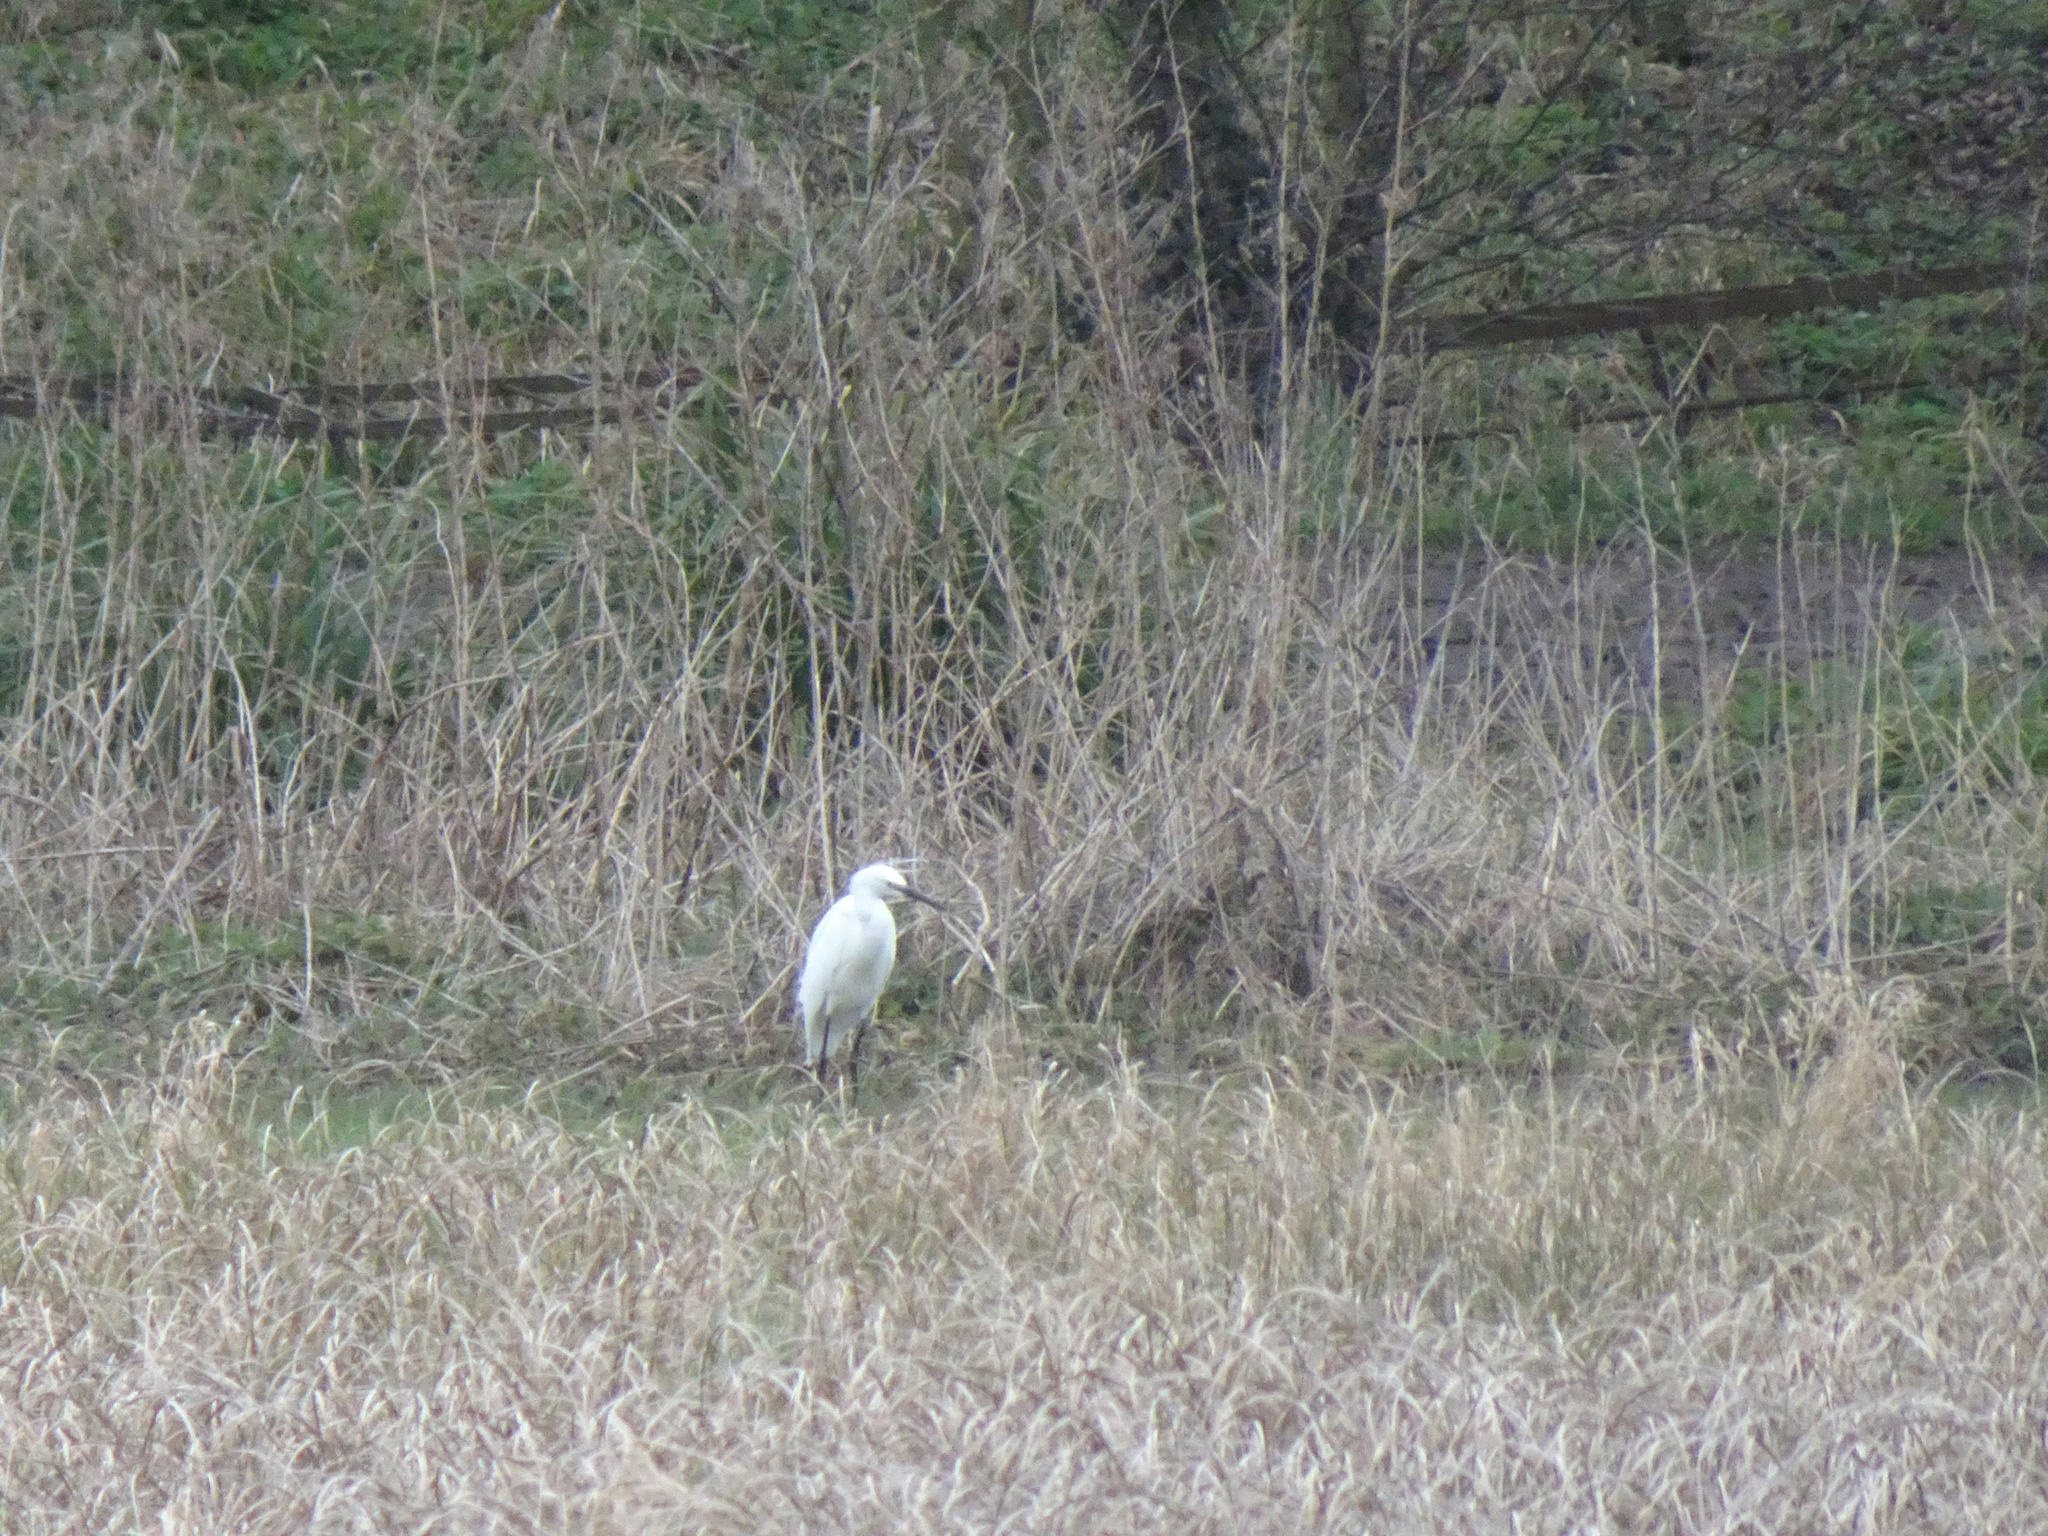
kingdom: Animalia
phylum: Chordata
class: Aves
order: Pelecaniformes
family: Ardeidae
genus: Egretta
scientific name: Egretta garzetta
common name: Little egret
